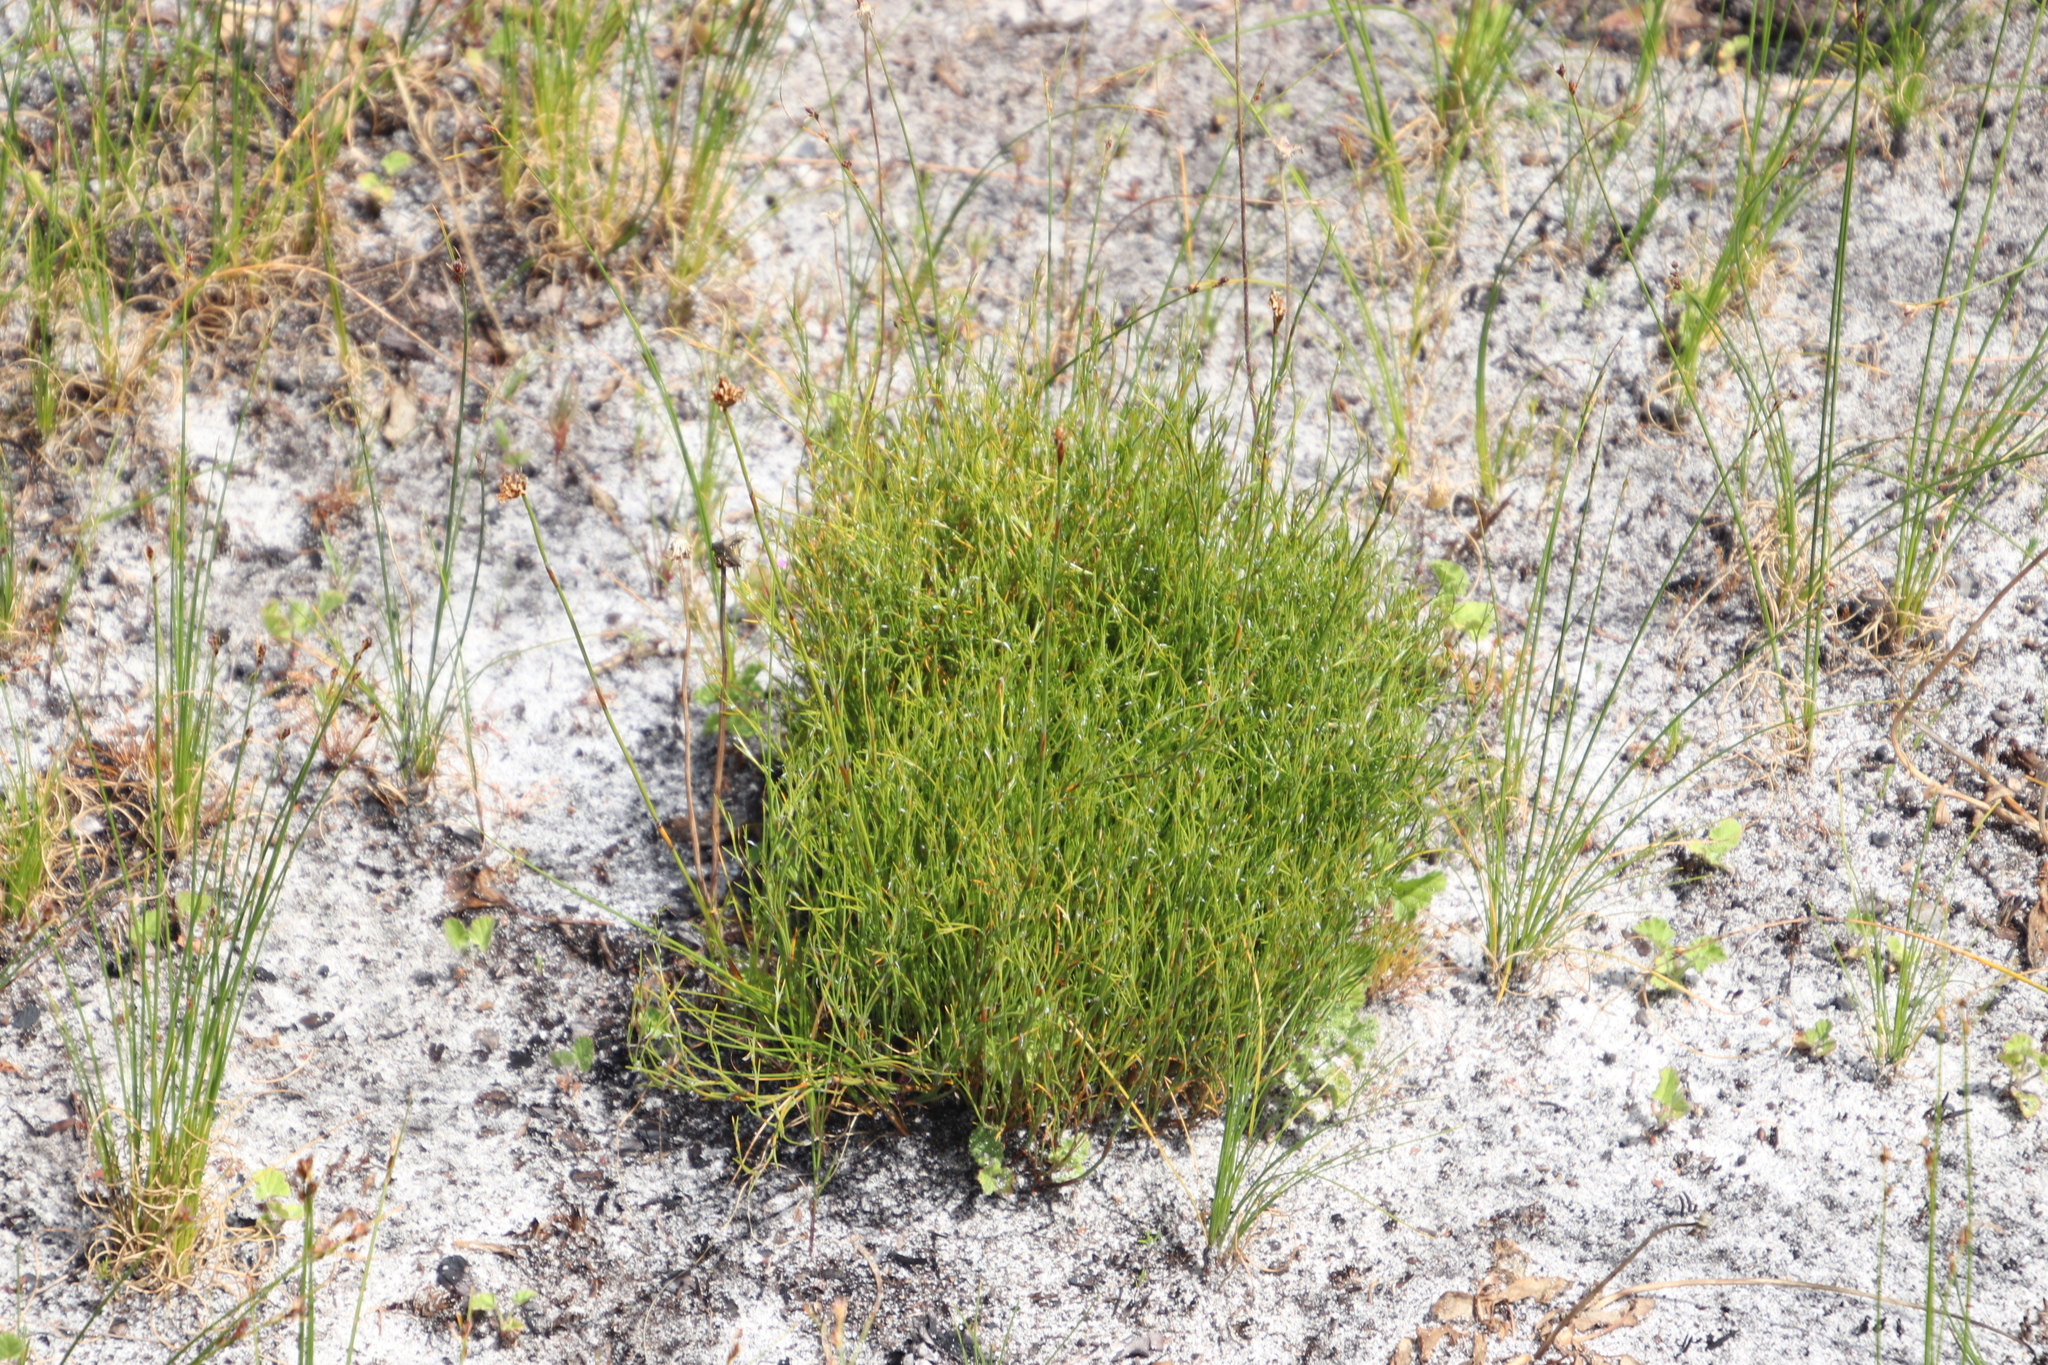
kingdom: Plantae
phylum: Tracheophyta
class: Liliopsida
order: Poales
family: Restionaceae
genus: Restio
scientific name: Restio capensis
